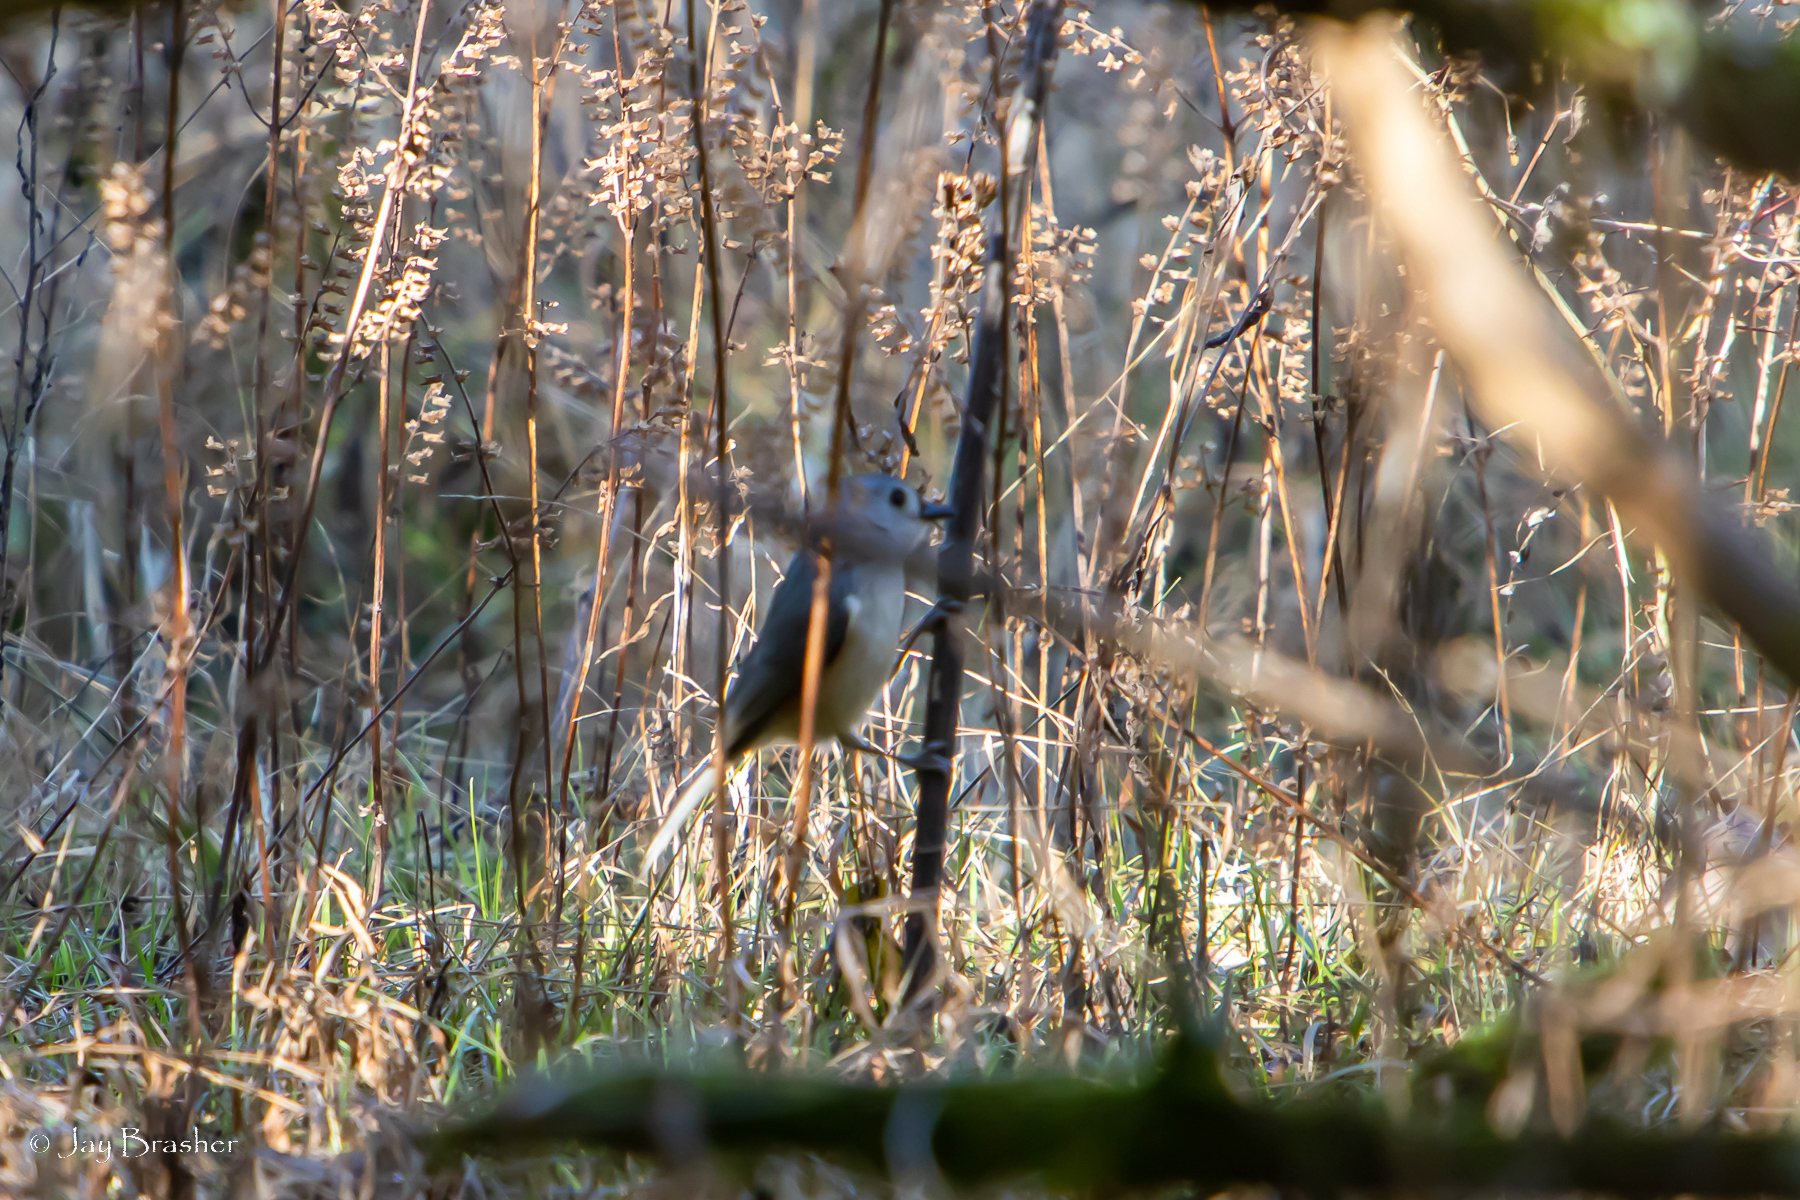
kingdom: Animalia
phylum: Chordata
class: Aves
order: Passeriformes
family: Paridae
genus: Baeolophus
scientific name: Baeolophus bicolor
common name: Tufted titmouse
